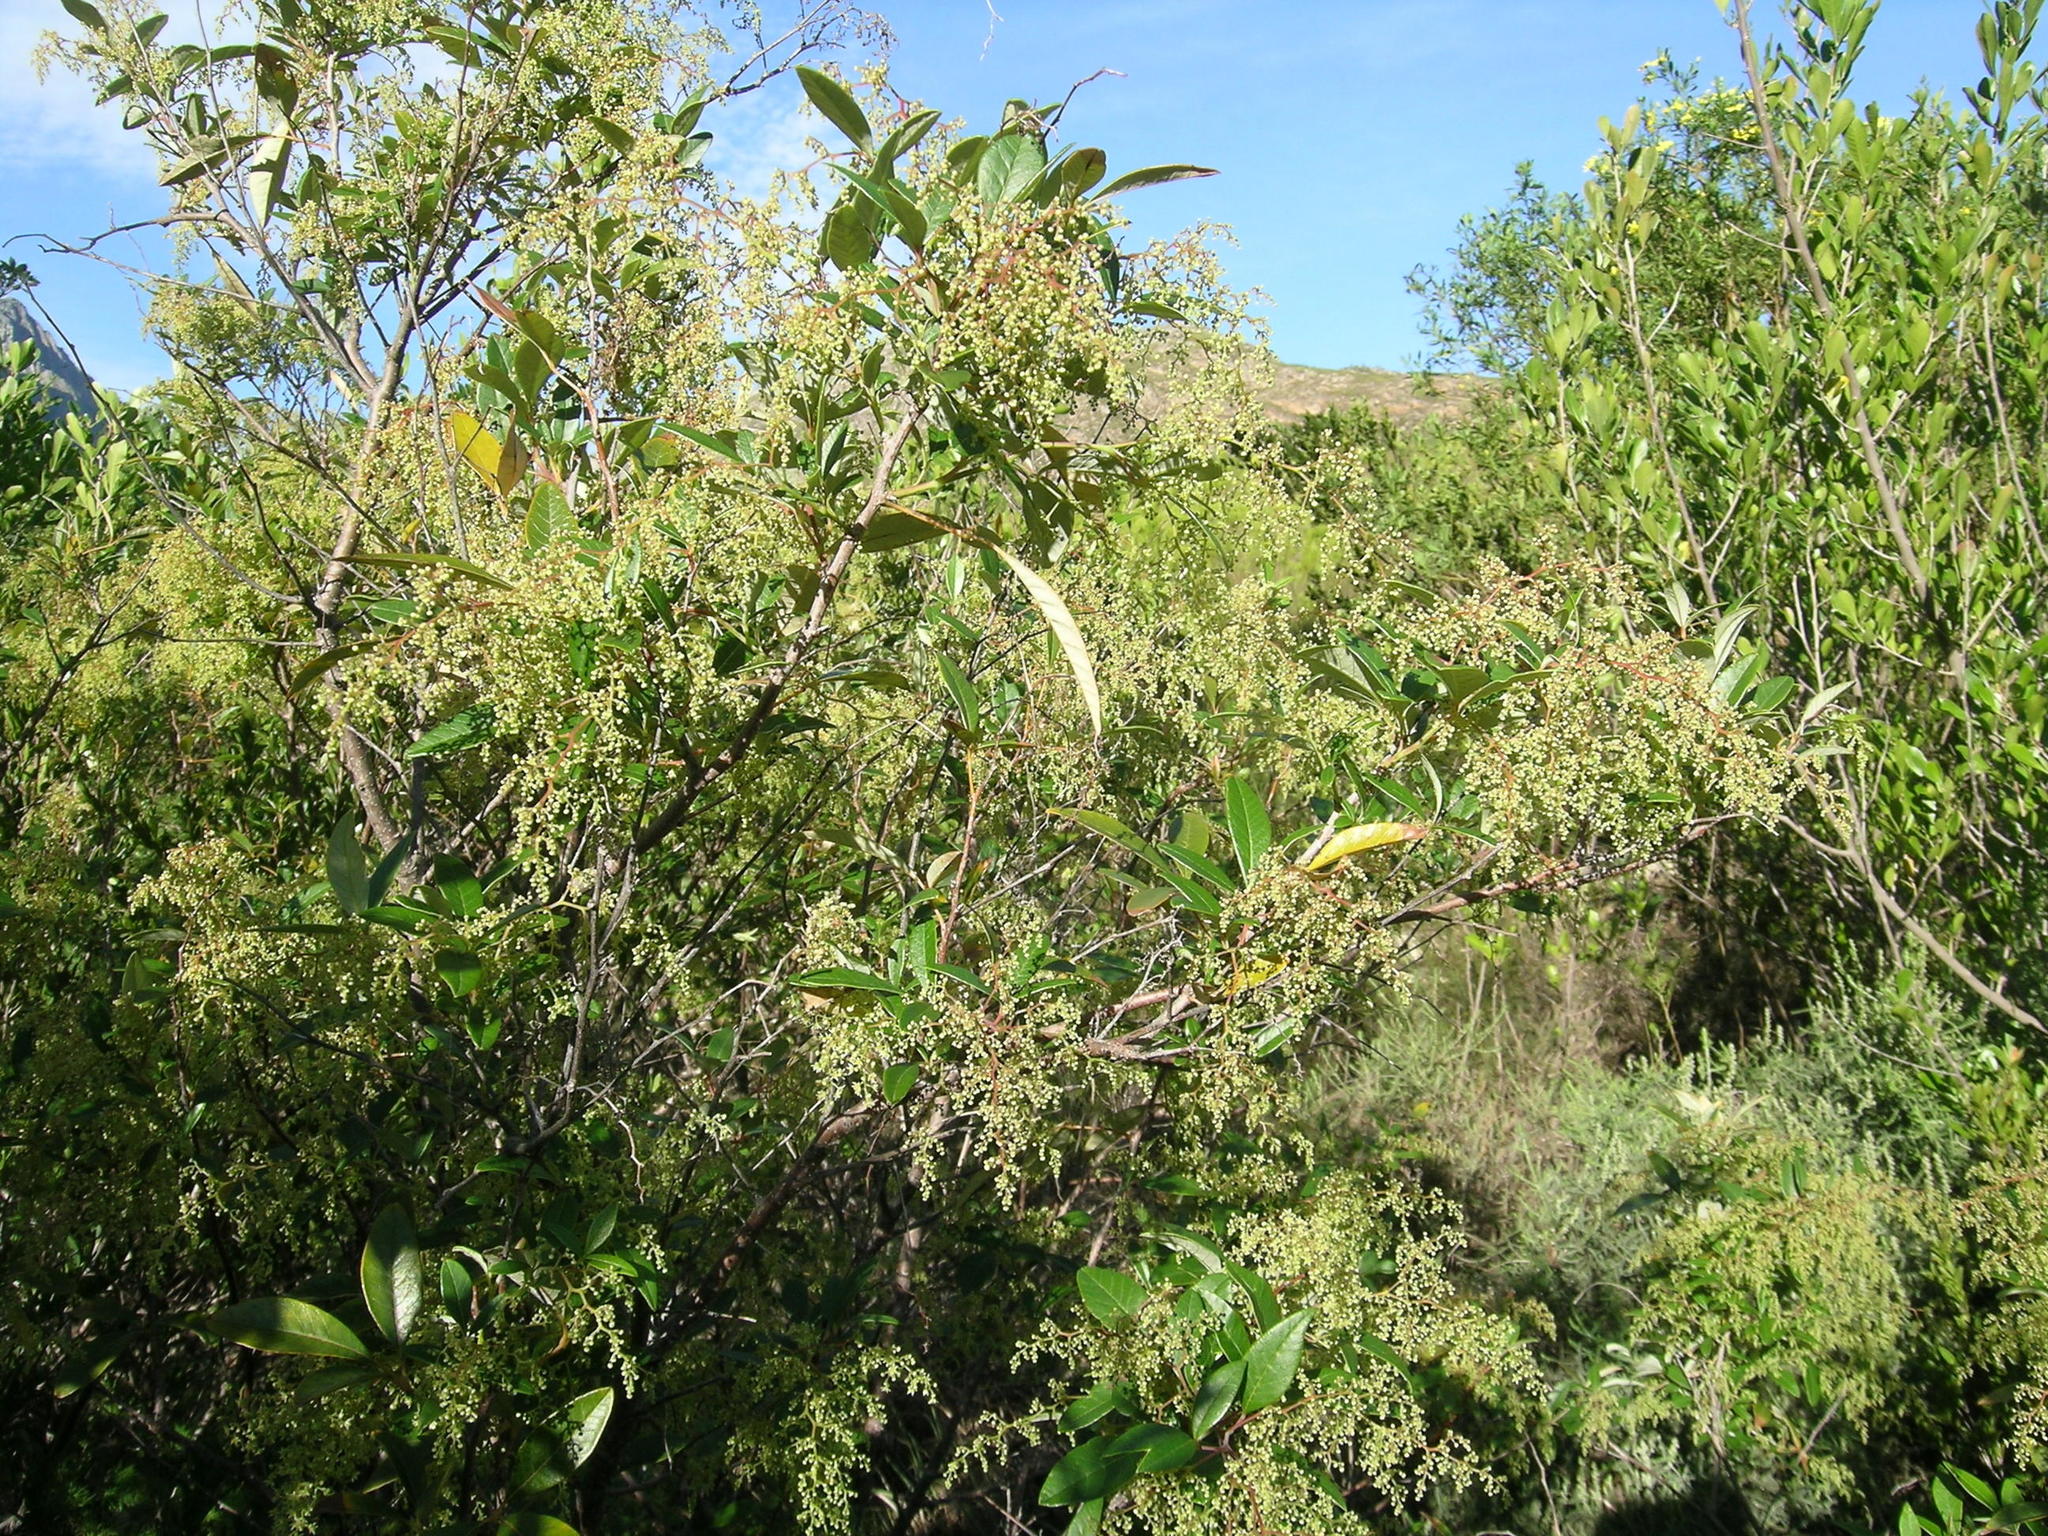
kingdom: Plantae
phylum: Tracheophyta
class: Magnoliopsida
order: Sapindales
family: Anacardiaceae
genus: Searsia
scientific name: Searsia tomentosa
